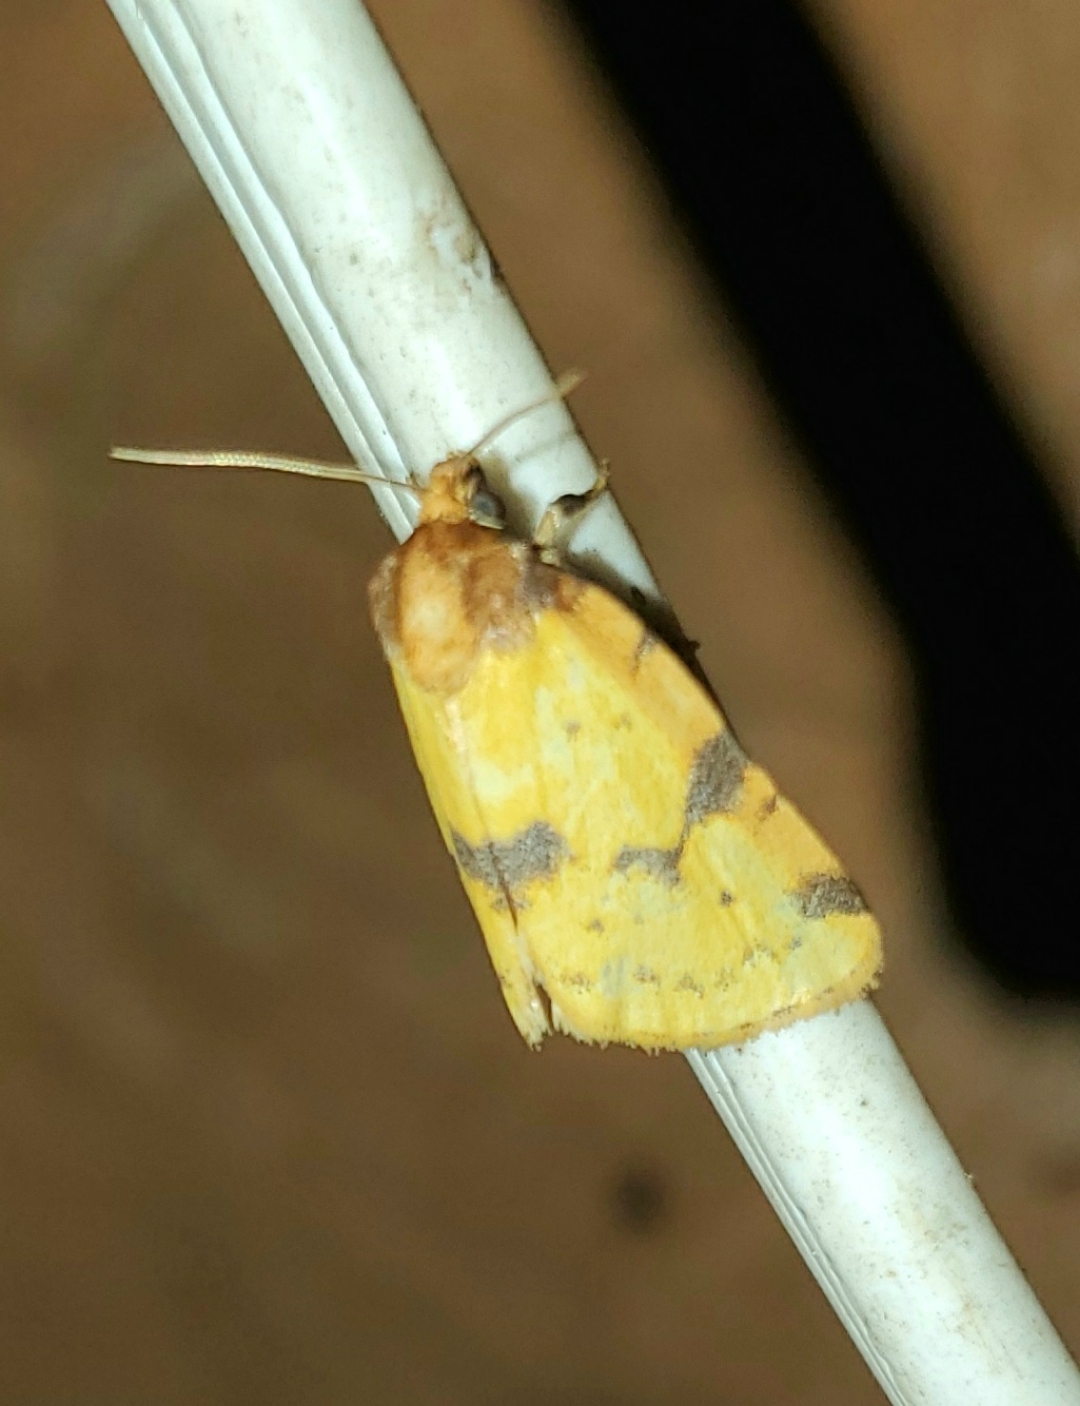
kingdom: Animalia
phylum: Arthropoda
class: Insecta
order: Lepidoptera
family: Noctuidae
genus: Azenia
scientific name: Azenia obtusa
